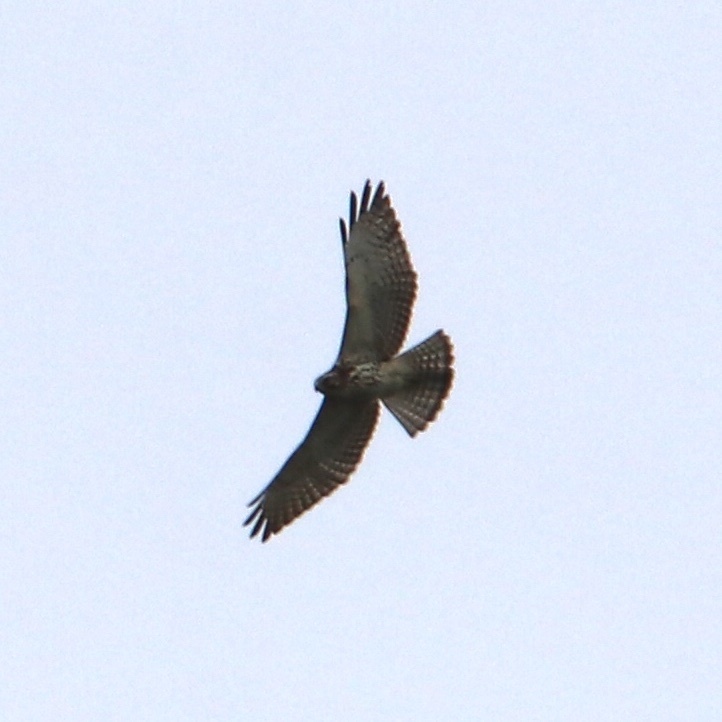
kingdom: Animalia
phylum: Chordata
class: Aves
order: Accipitriformes
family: Accipitridae
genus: Buteo
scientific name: Buteo platypterus
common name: Broad-winged hawk
